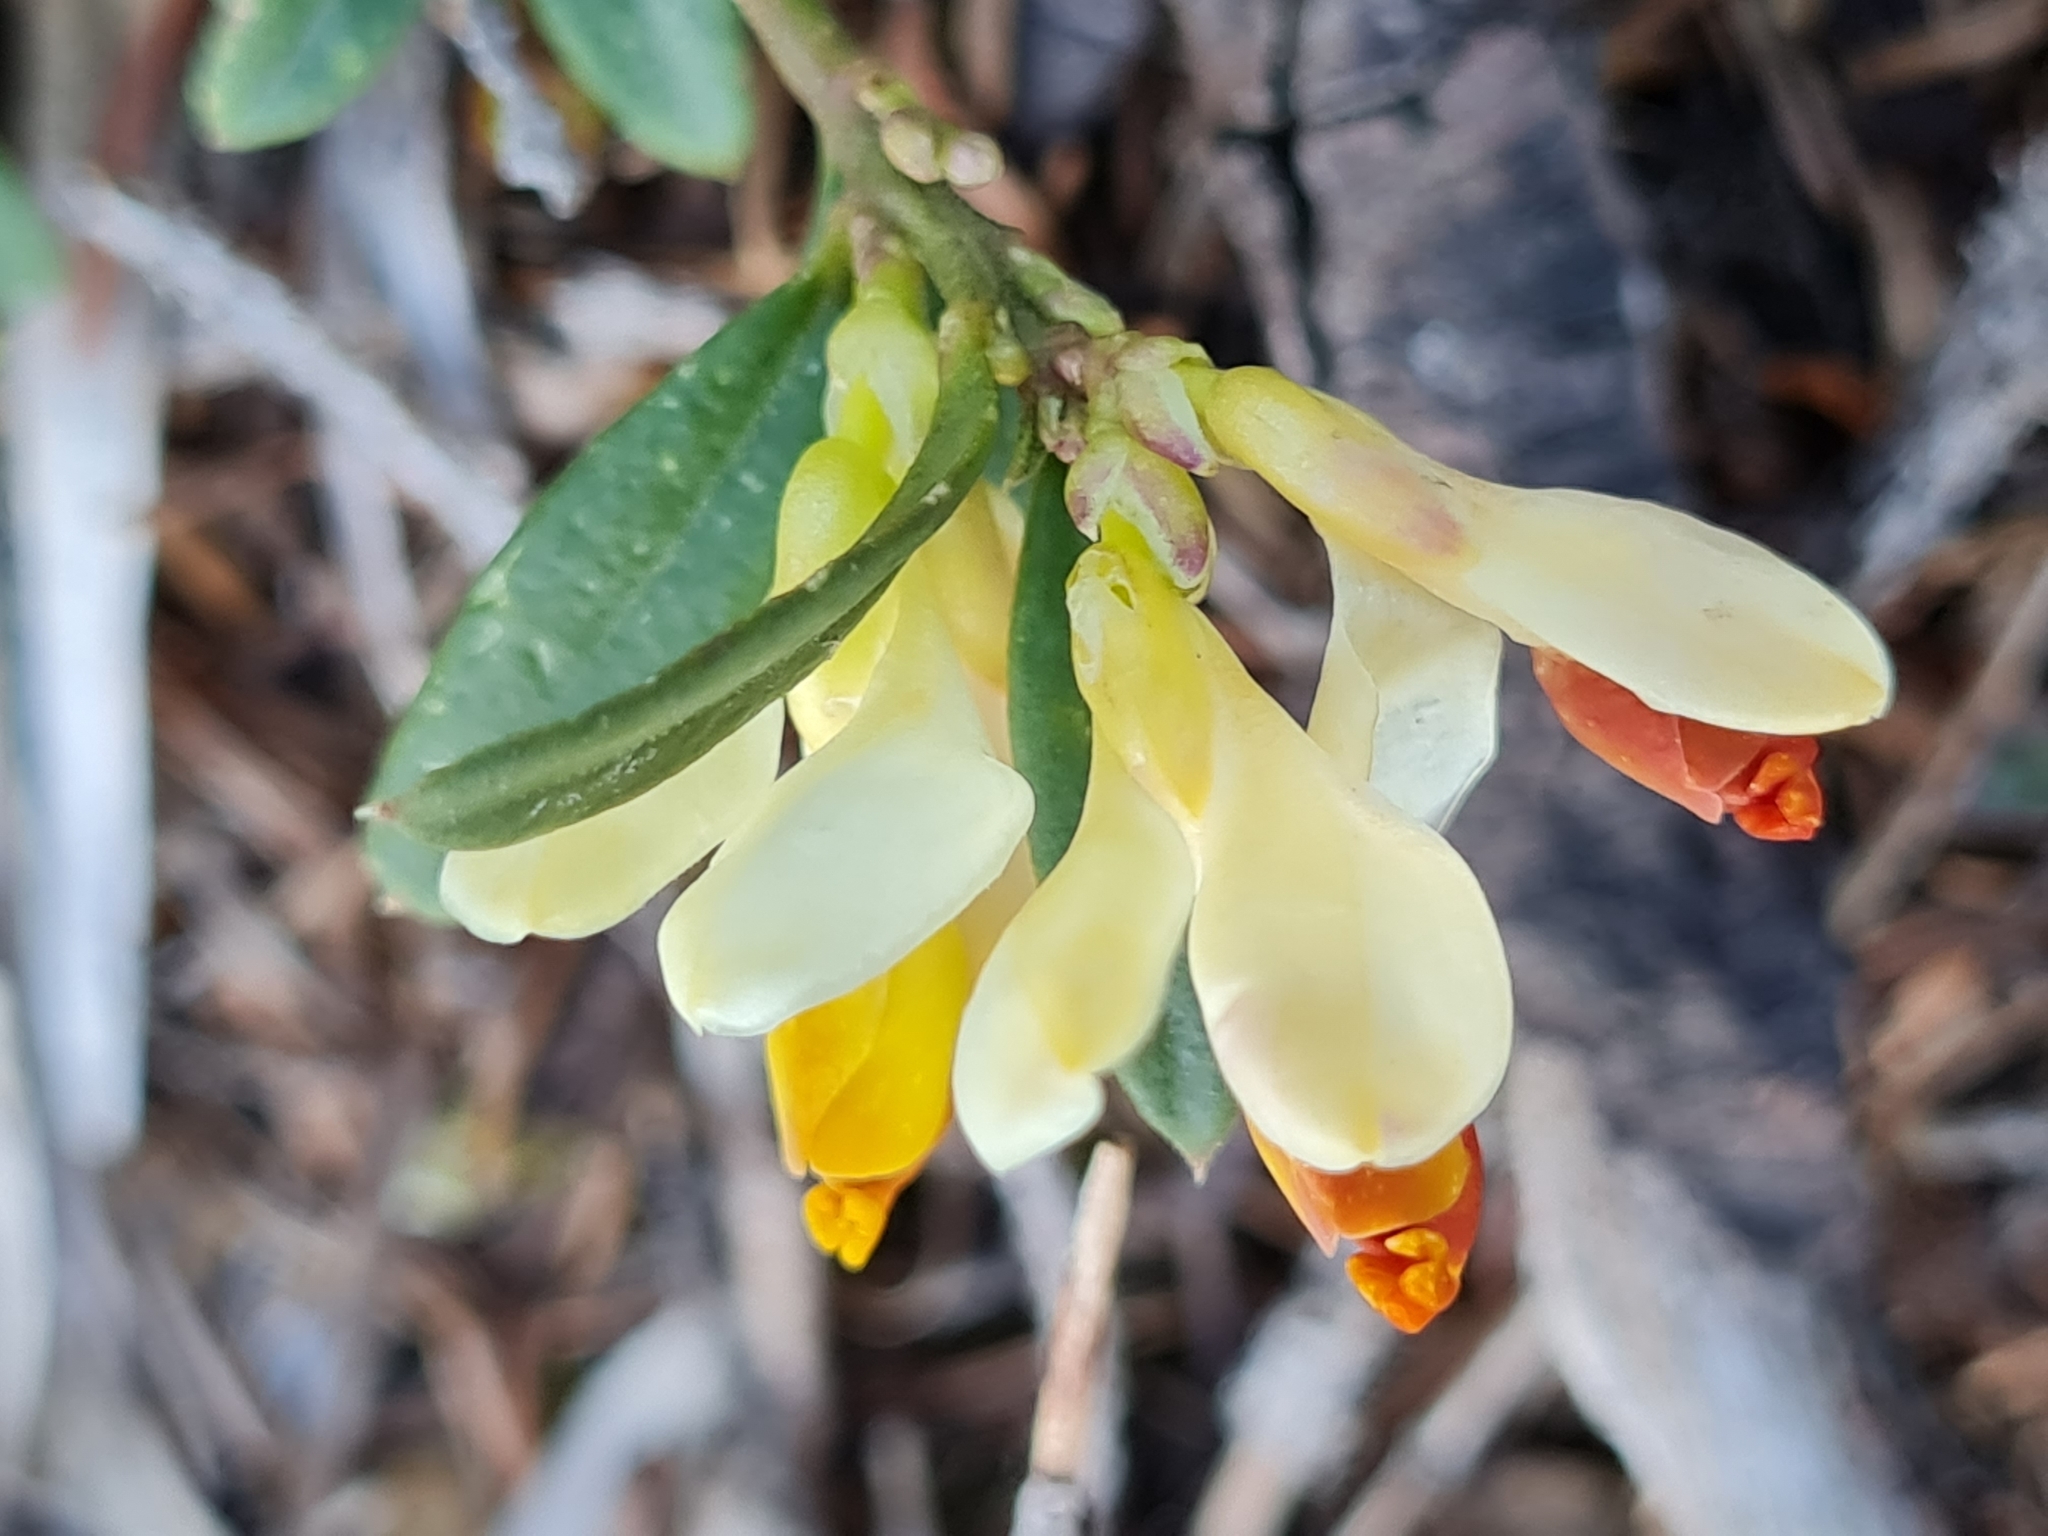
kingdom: Plantae
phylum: Tracheophyta
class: Magnoliopsida
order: Fabales
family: Polygalaceae
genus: Polygaloides
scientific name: Polygaloides chamaebuxus
